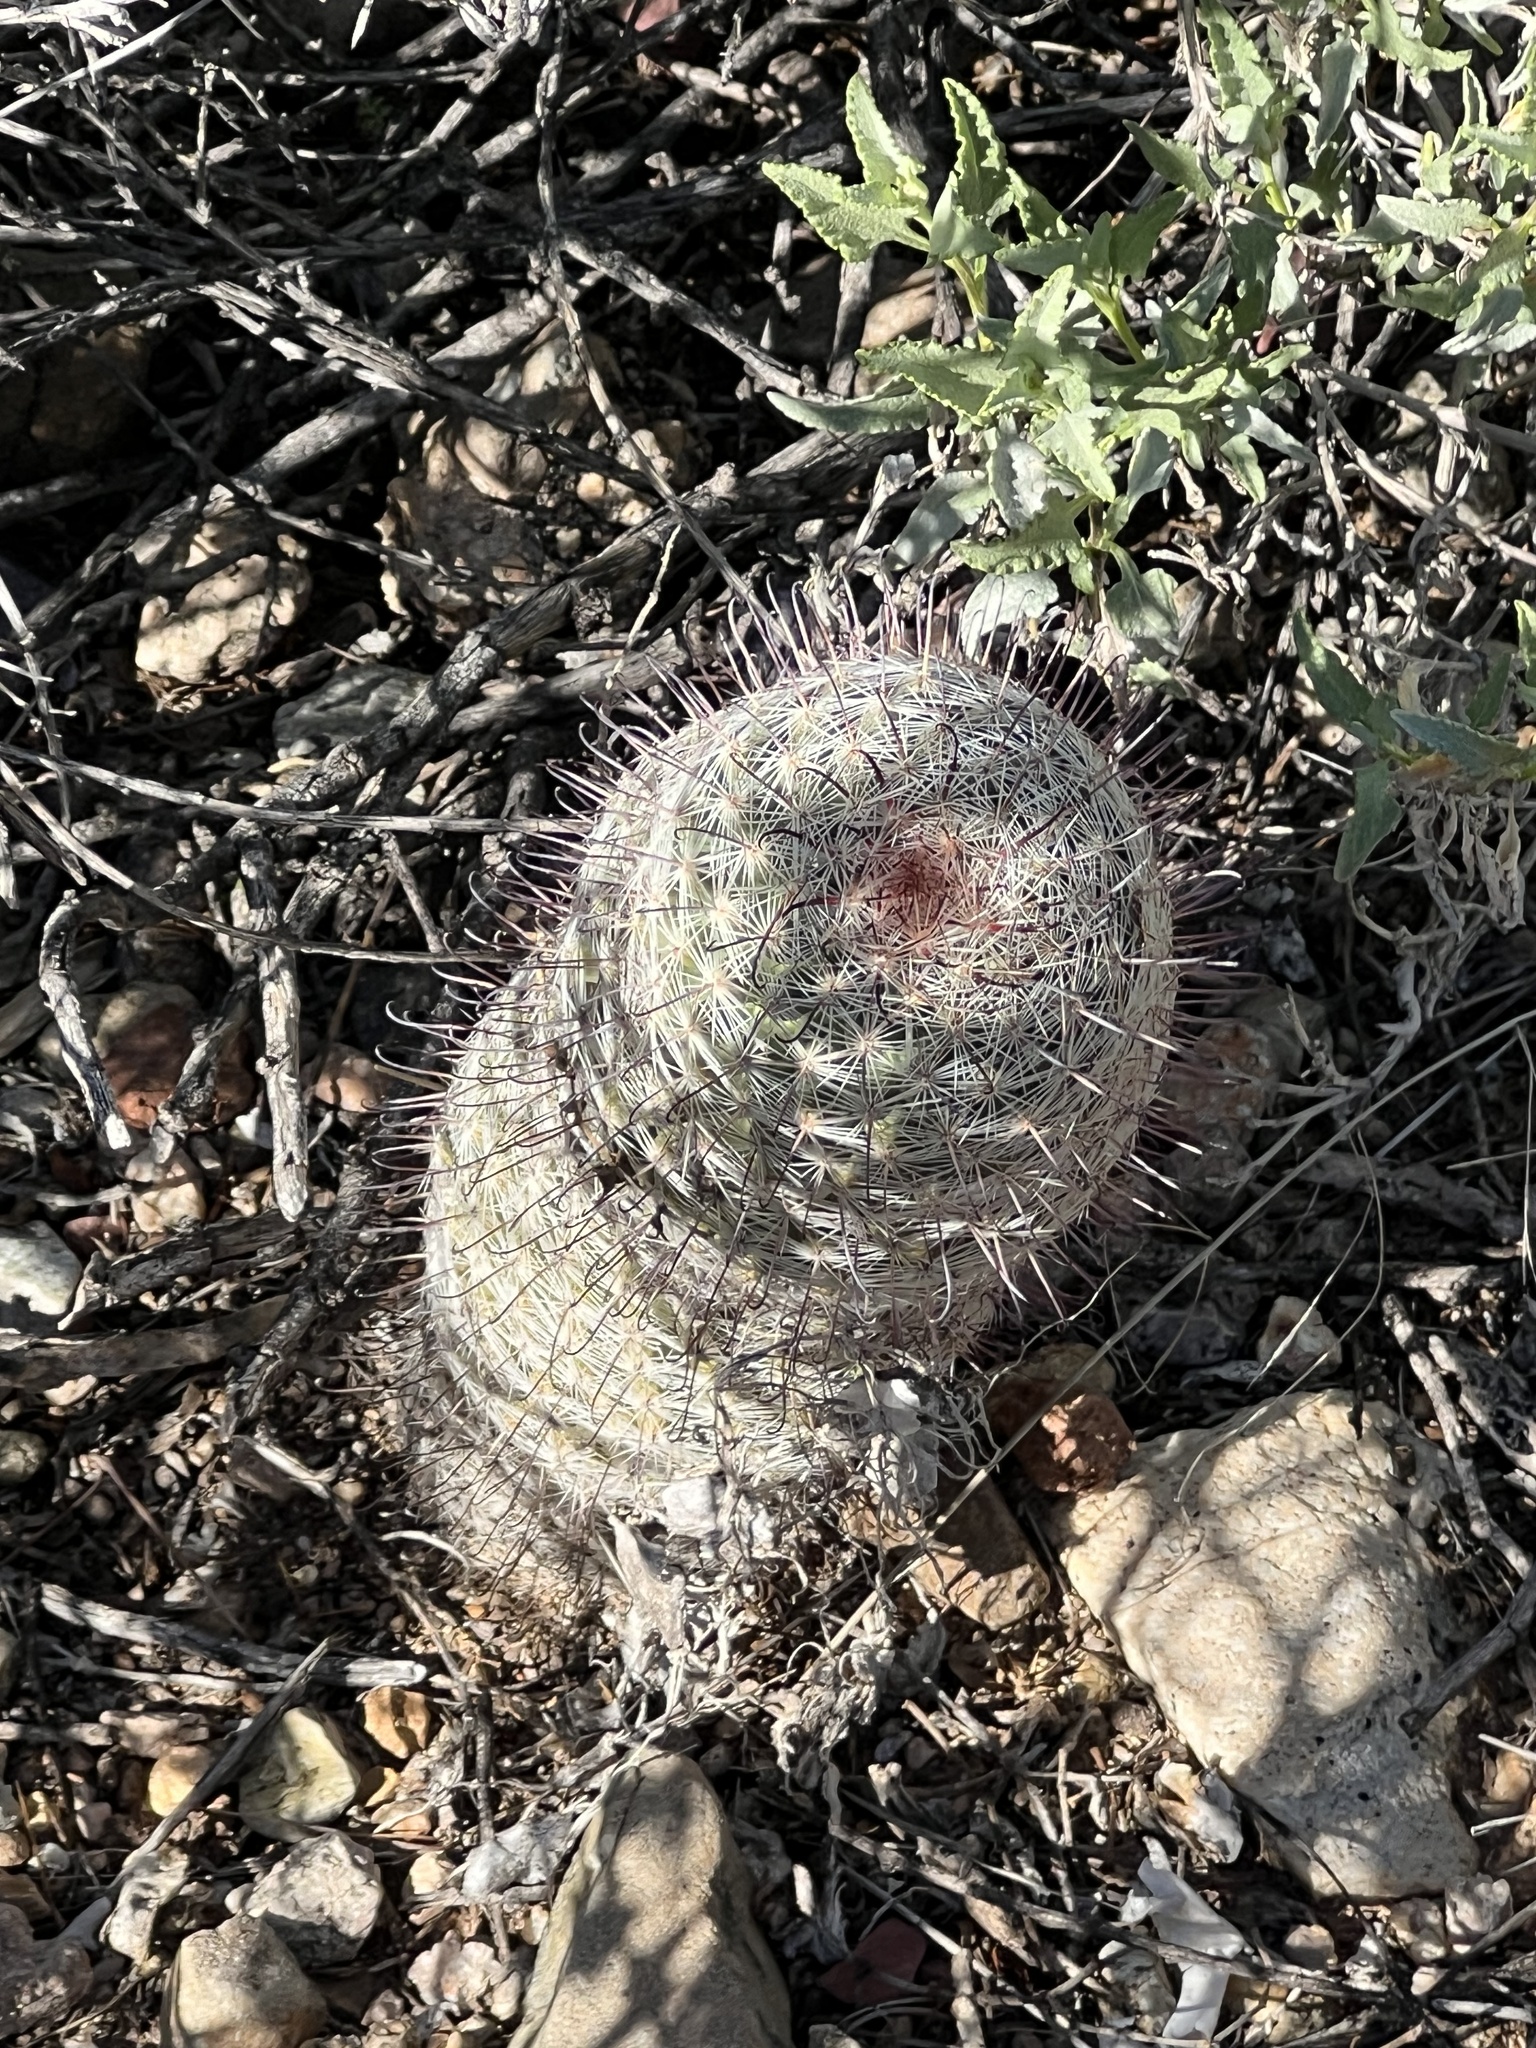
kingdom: Plantae
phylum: Tracheophyta
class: Magnoliopsida
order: Caryophyllales
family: Cactaceae
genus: Cochemiea
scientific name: Cochemiea grahamii
